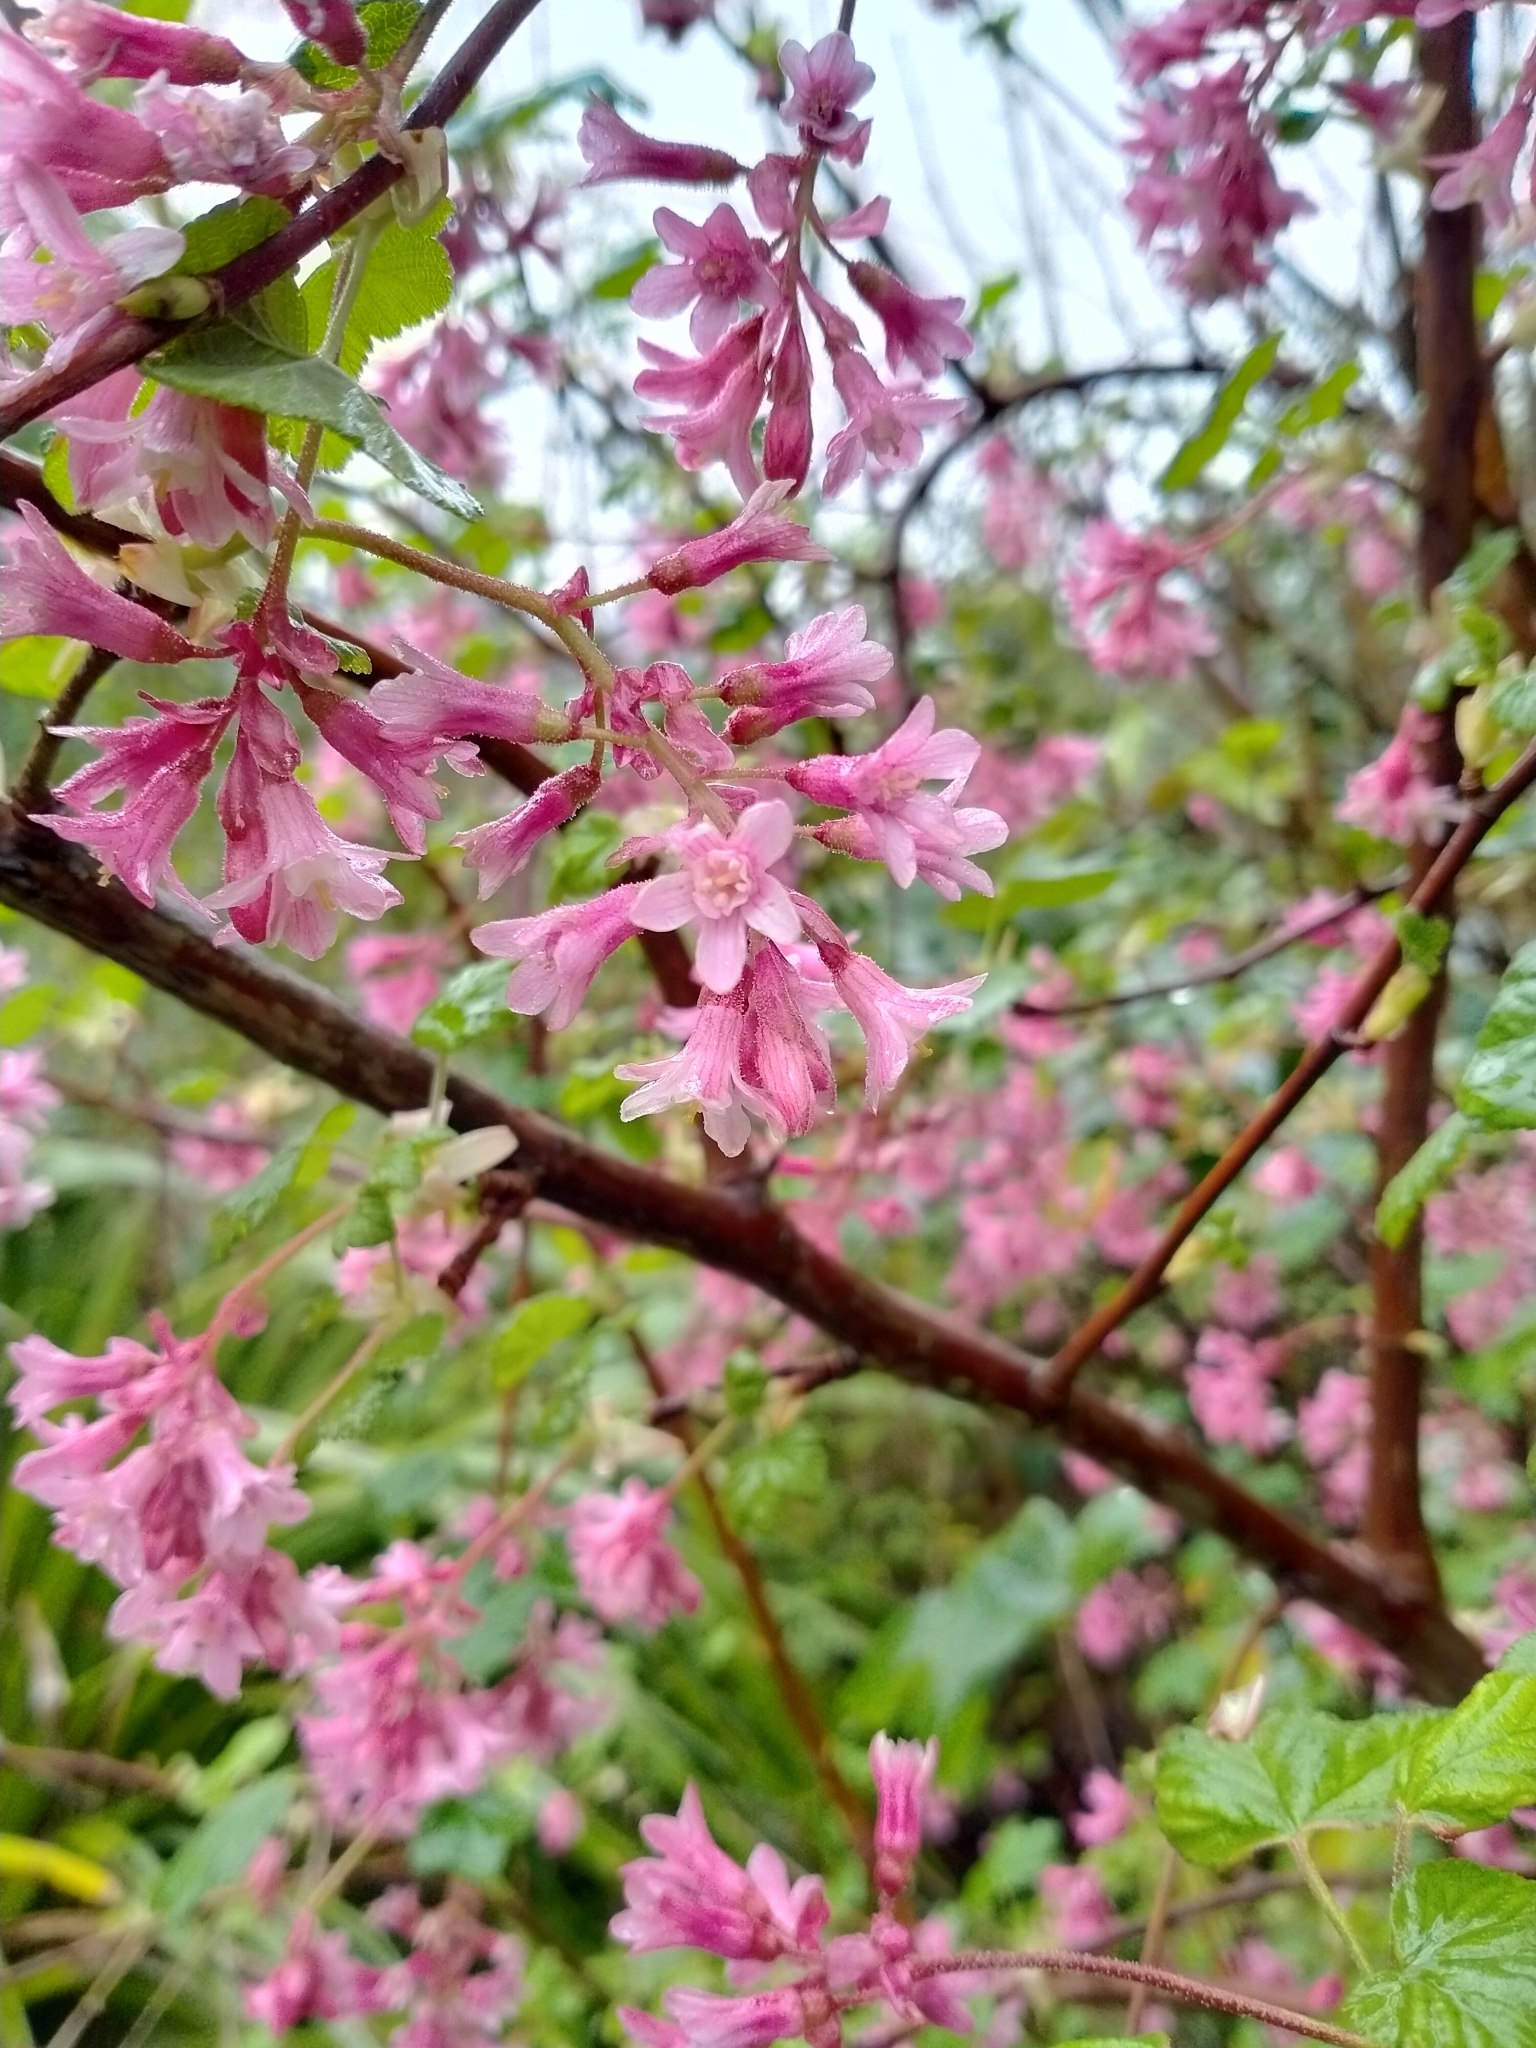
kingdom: Plantae
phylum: Tracheophyta
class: Magnoliopsida
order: Saxifragales
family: Grossulariaceae
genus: Ribes
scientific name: Ribes sanguineum
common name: Flowering currant
